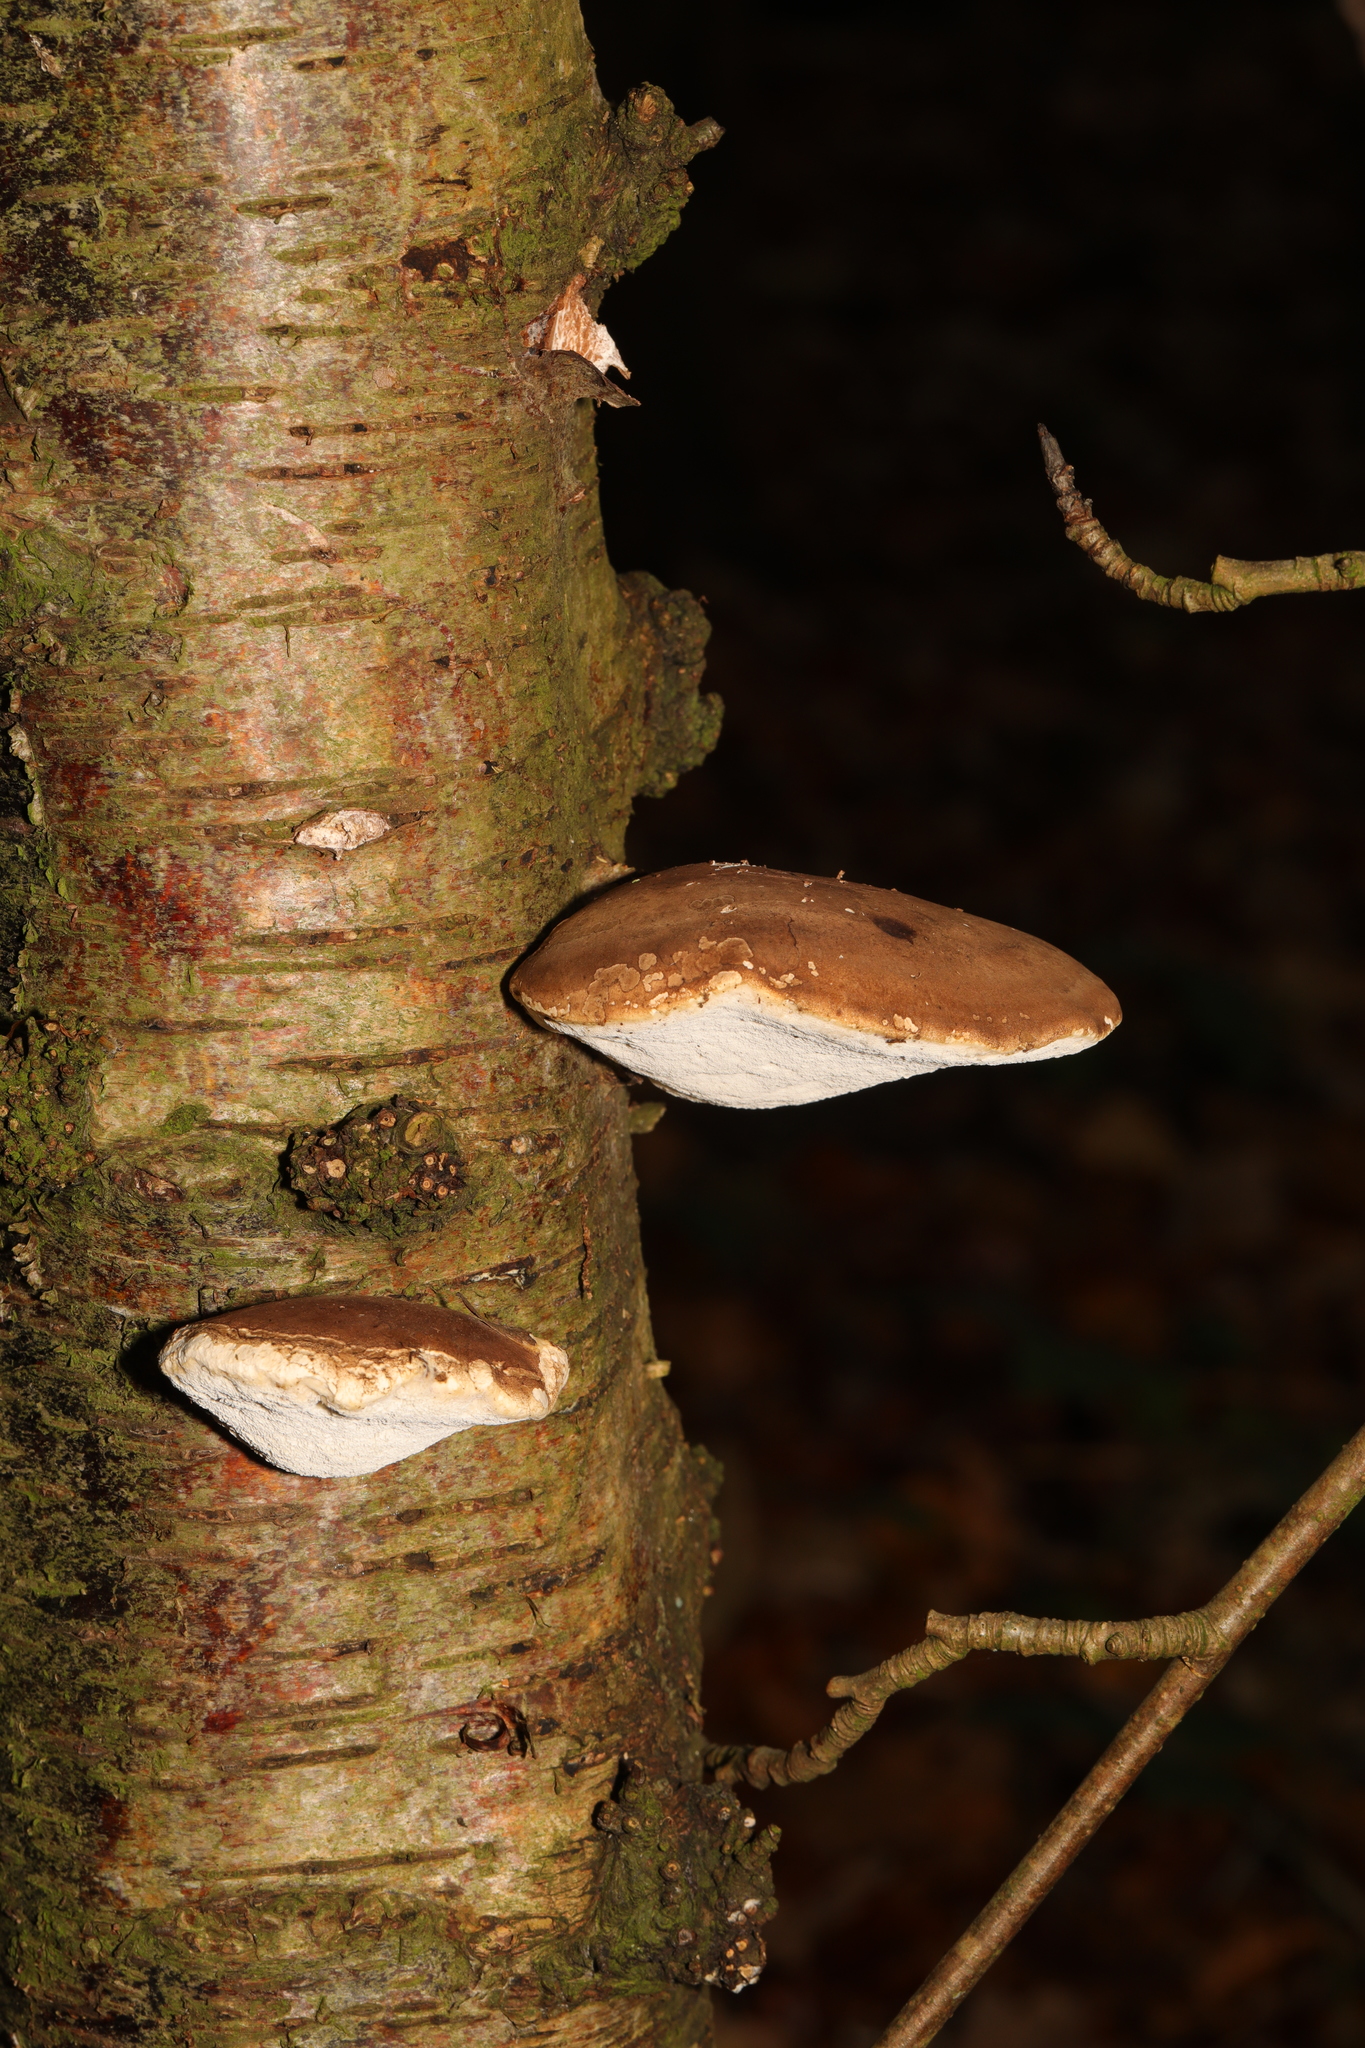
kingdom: Fungi
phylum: Basidiomycota
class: Agaricomycetes
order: Polyporales
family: Fomitopsidaceae
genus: Fomitopsis
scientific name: Fomitopsis betulina
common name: Birch polypore
